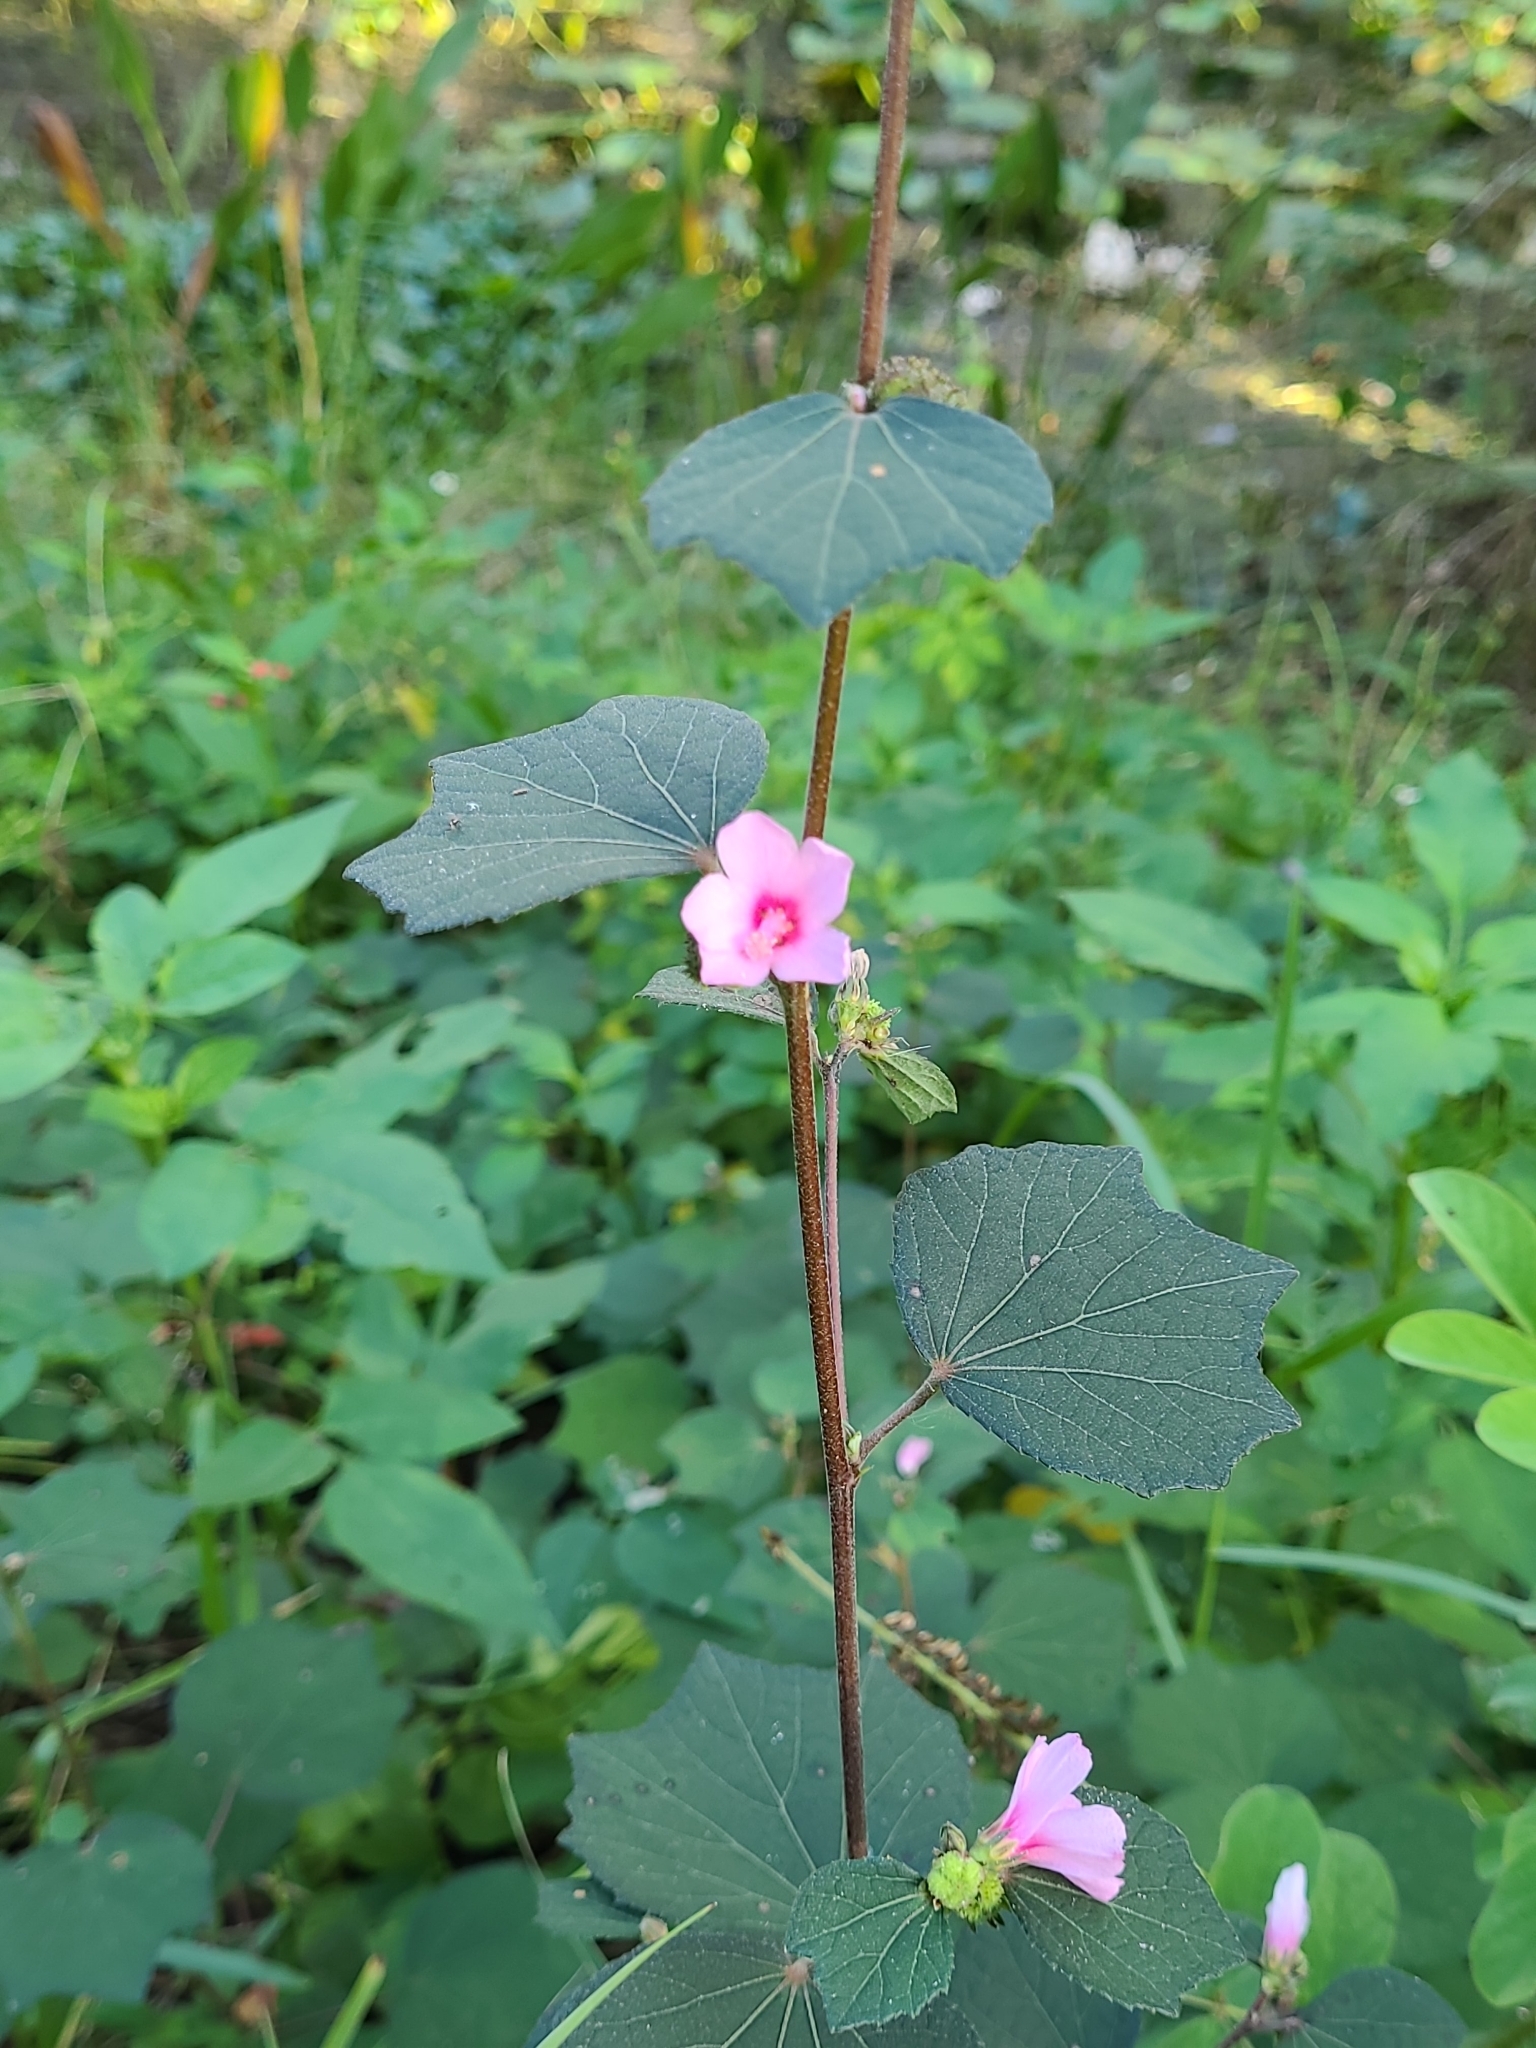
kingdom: Plantae
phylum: Tracheophyta
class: Magnoliopsida
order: Malvales
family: Malvaceae
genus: Urena
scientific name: Urena lobata
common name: Caesarweed
